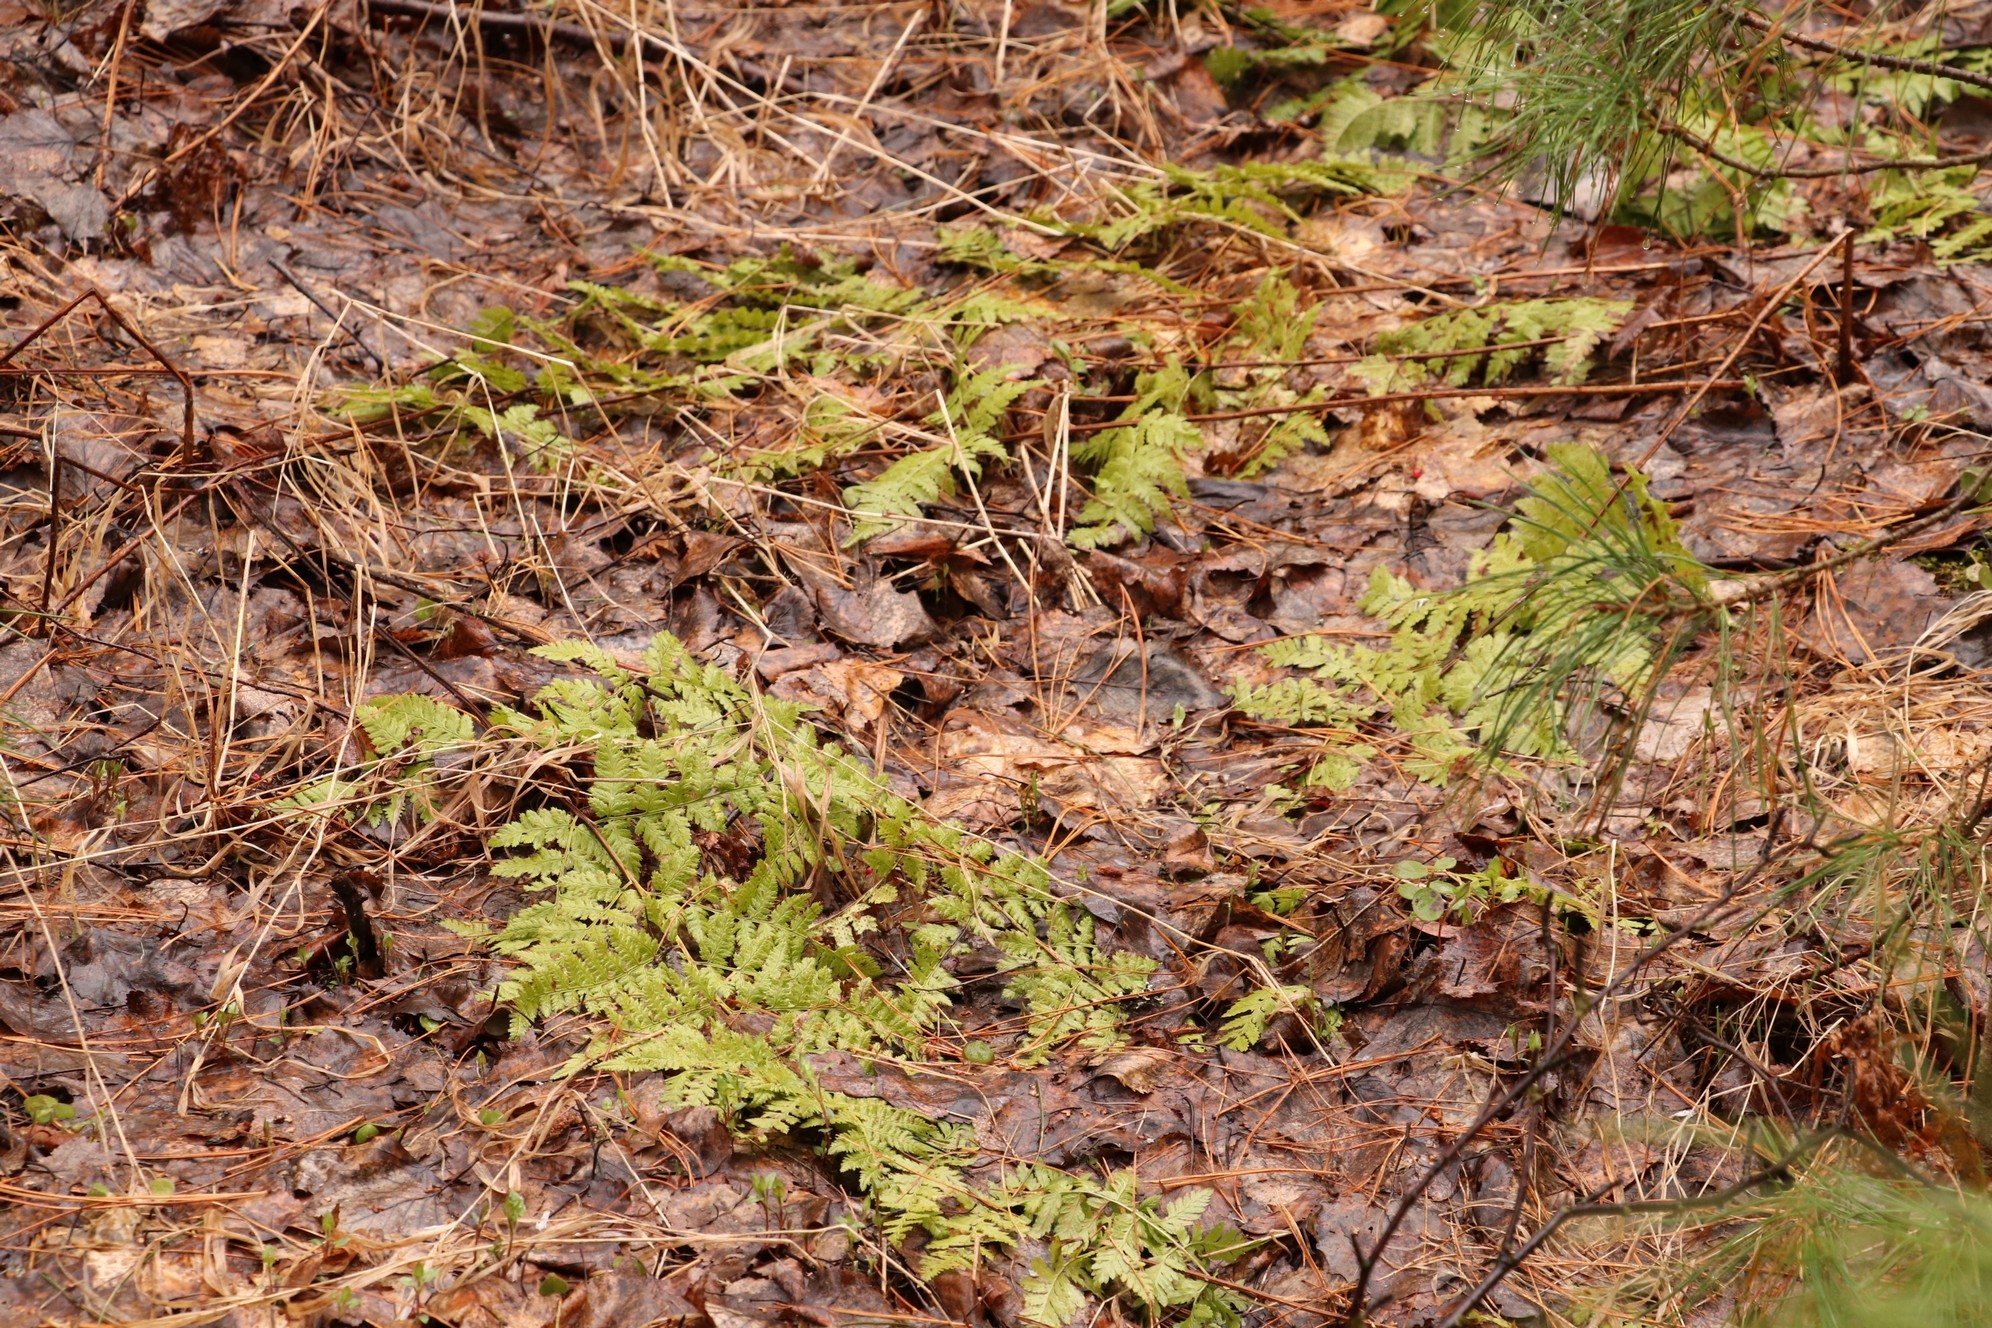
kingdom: Plantae
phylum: Tracheophyta
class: Polypodiopsida
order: Polypodiales
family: Dryopteridaceae
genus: Dryopteris
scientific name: Dryopteris carthusiana
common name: Narrow buckler-fern
